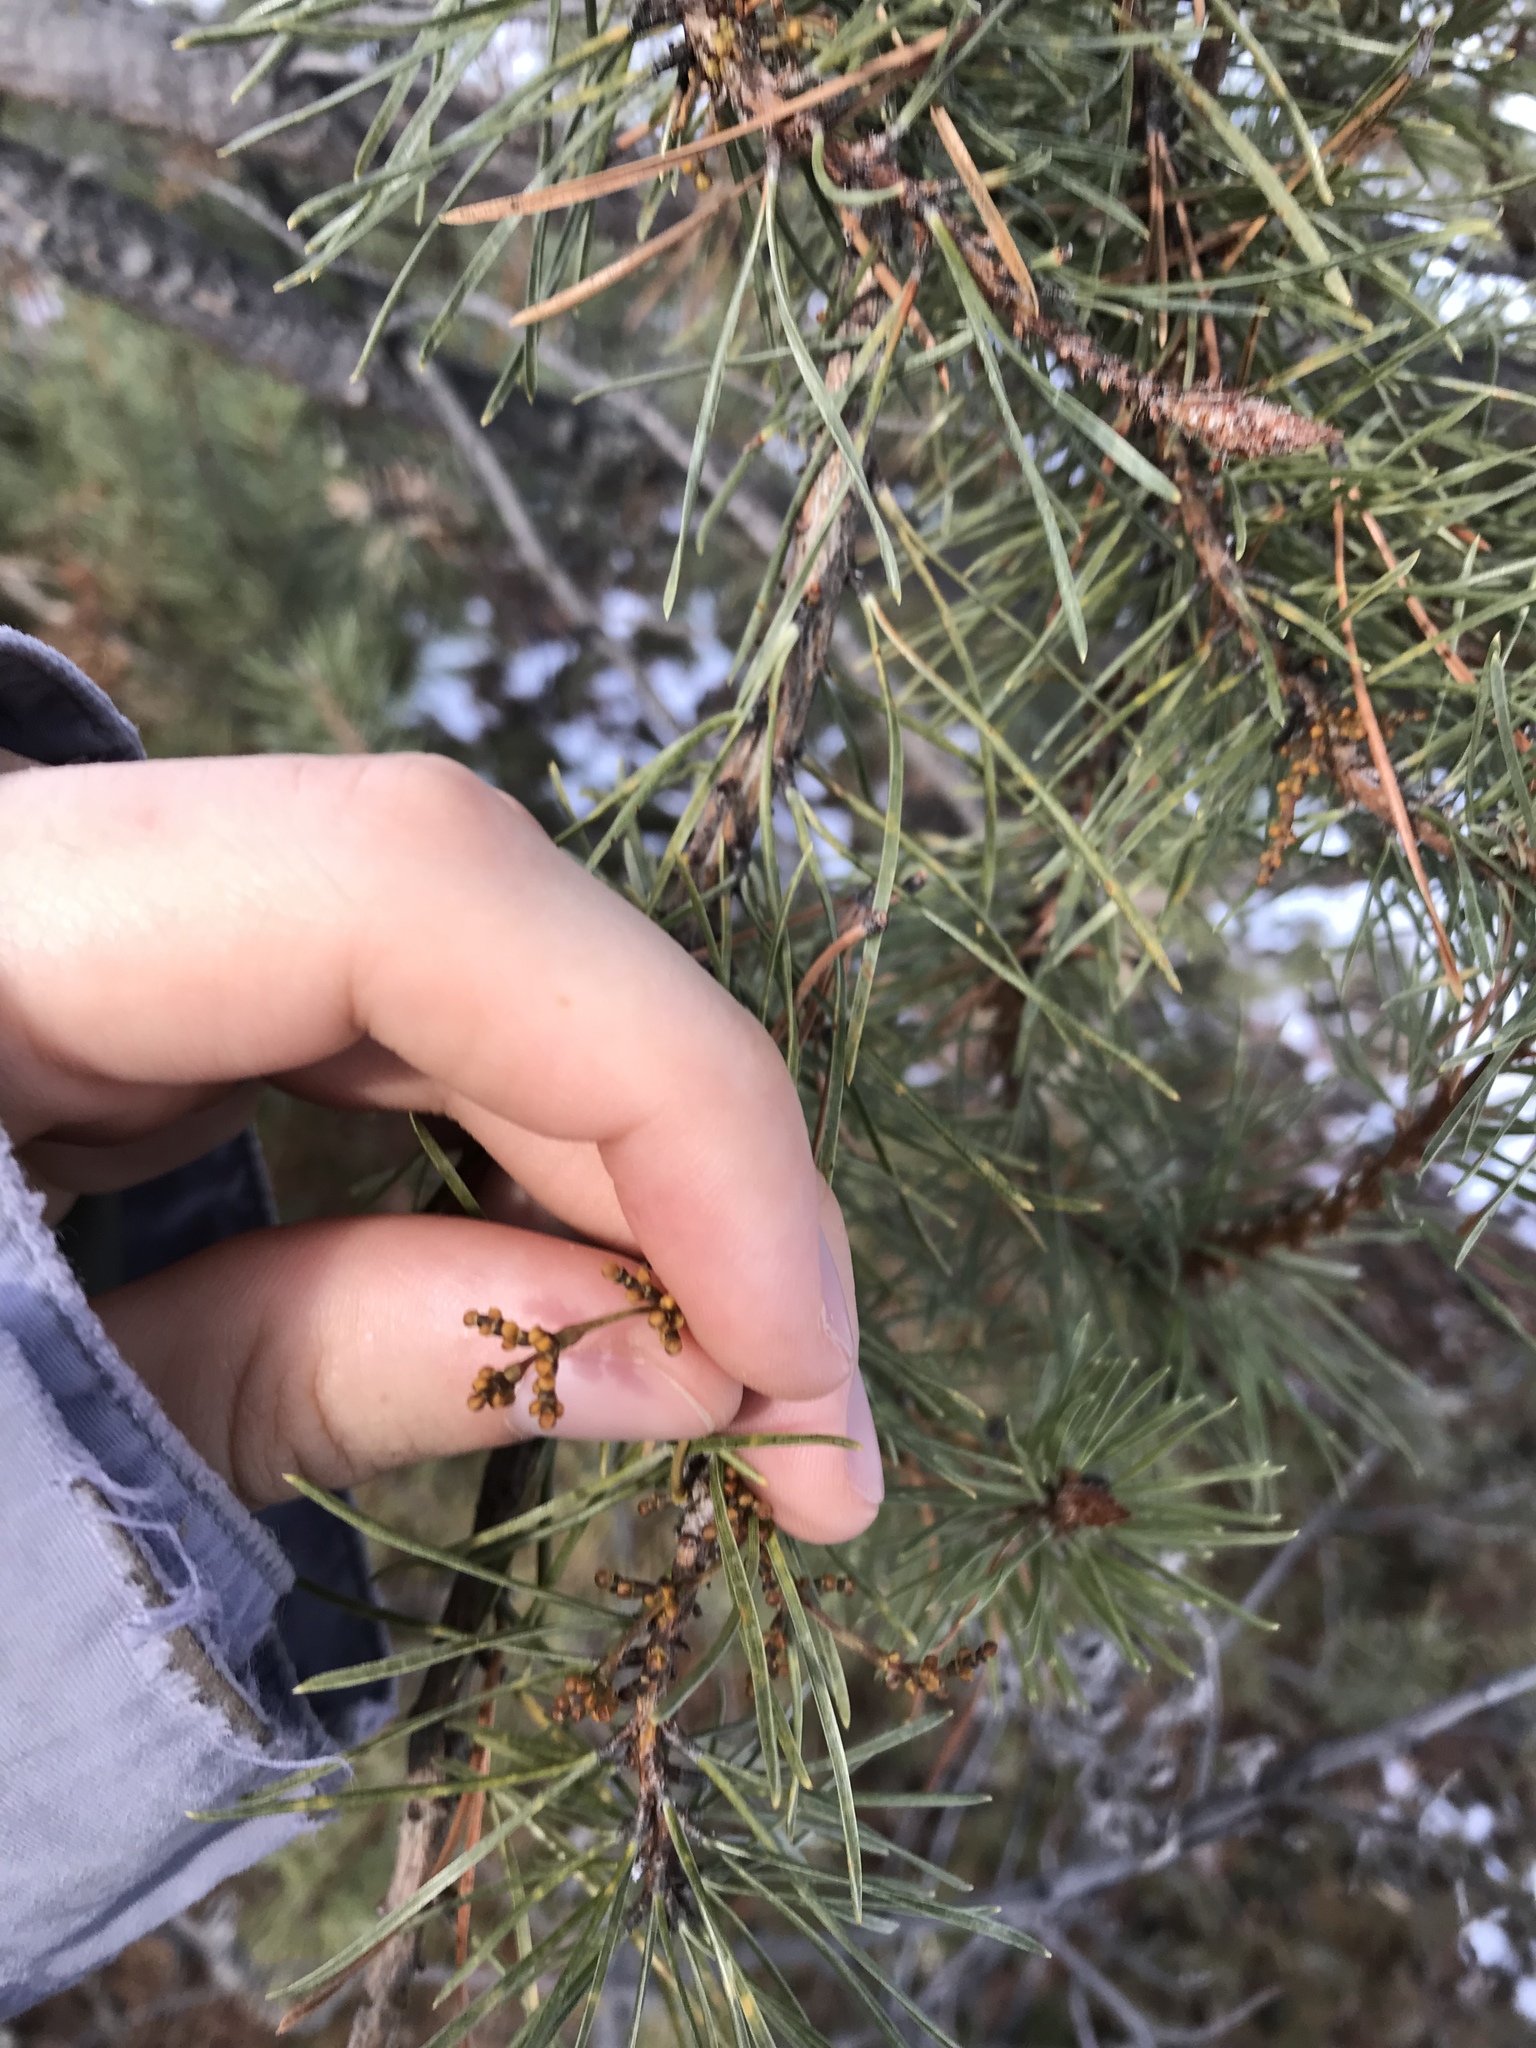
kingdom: Plantae
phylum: Tracheophyta
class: Magnoliopsida
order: Santalales
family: Viscaceae
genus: Arceuthobium
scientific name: Arceuthobium americanum
